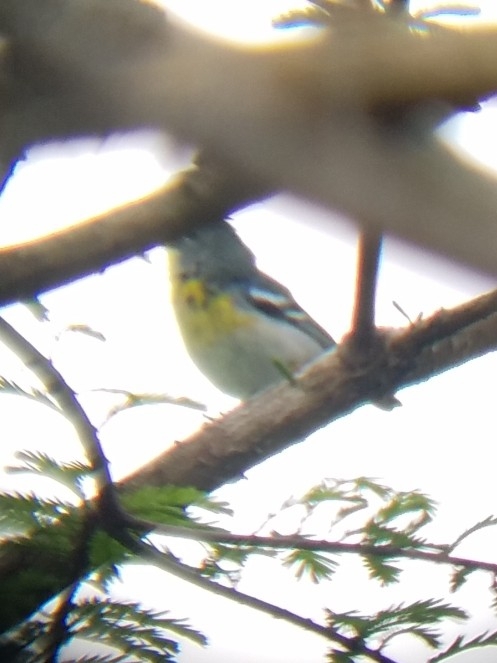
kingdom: Animalia
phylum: Chordata
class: Aves
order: Passeriformes
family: Parulidae
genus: Setophaga
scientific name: Setophaga americana
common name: Northern parula
